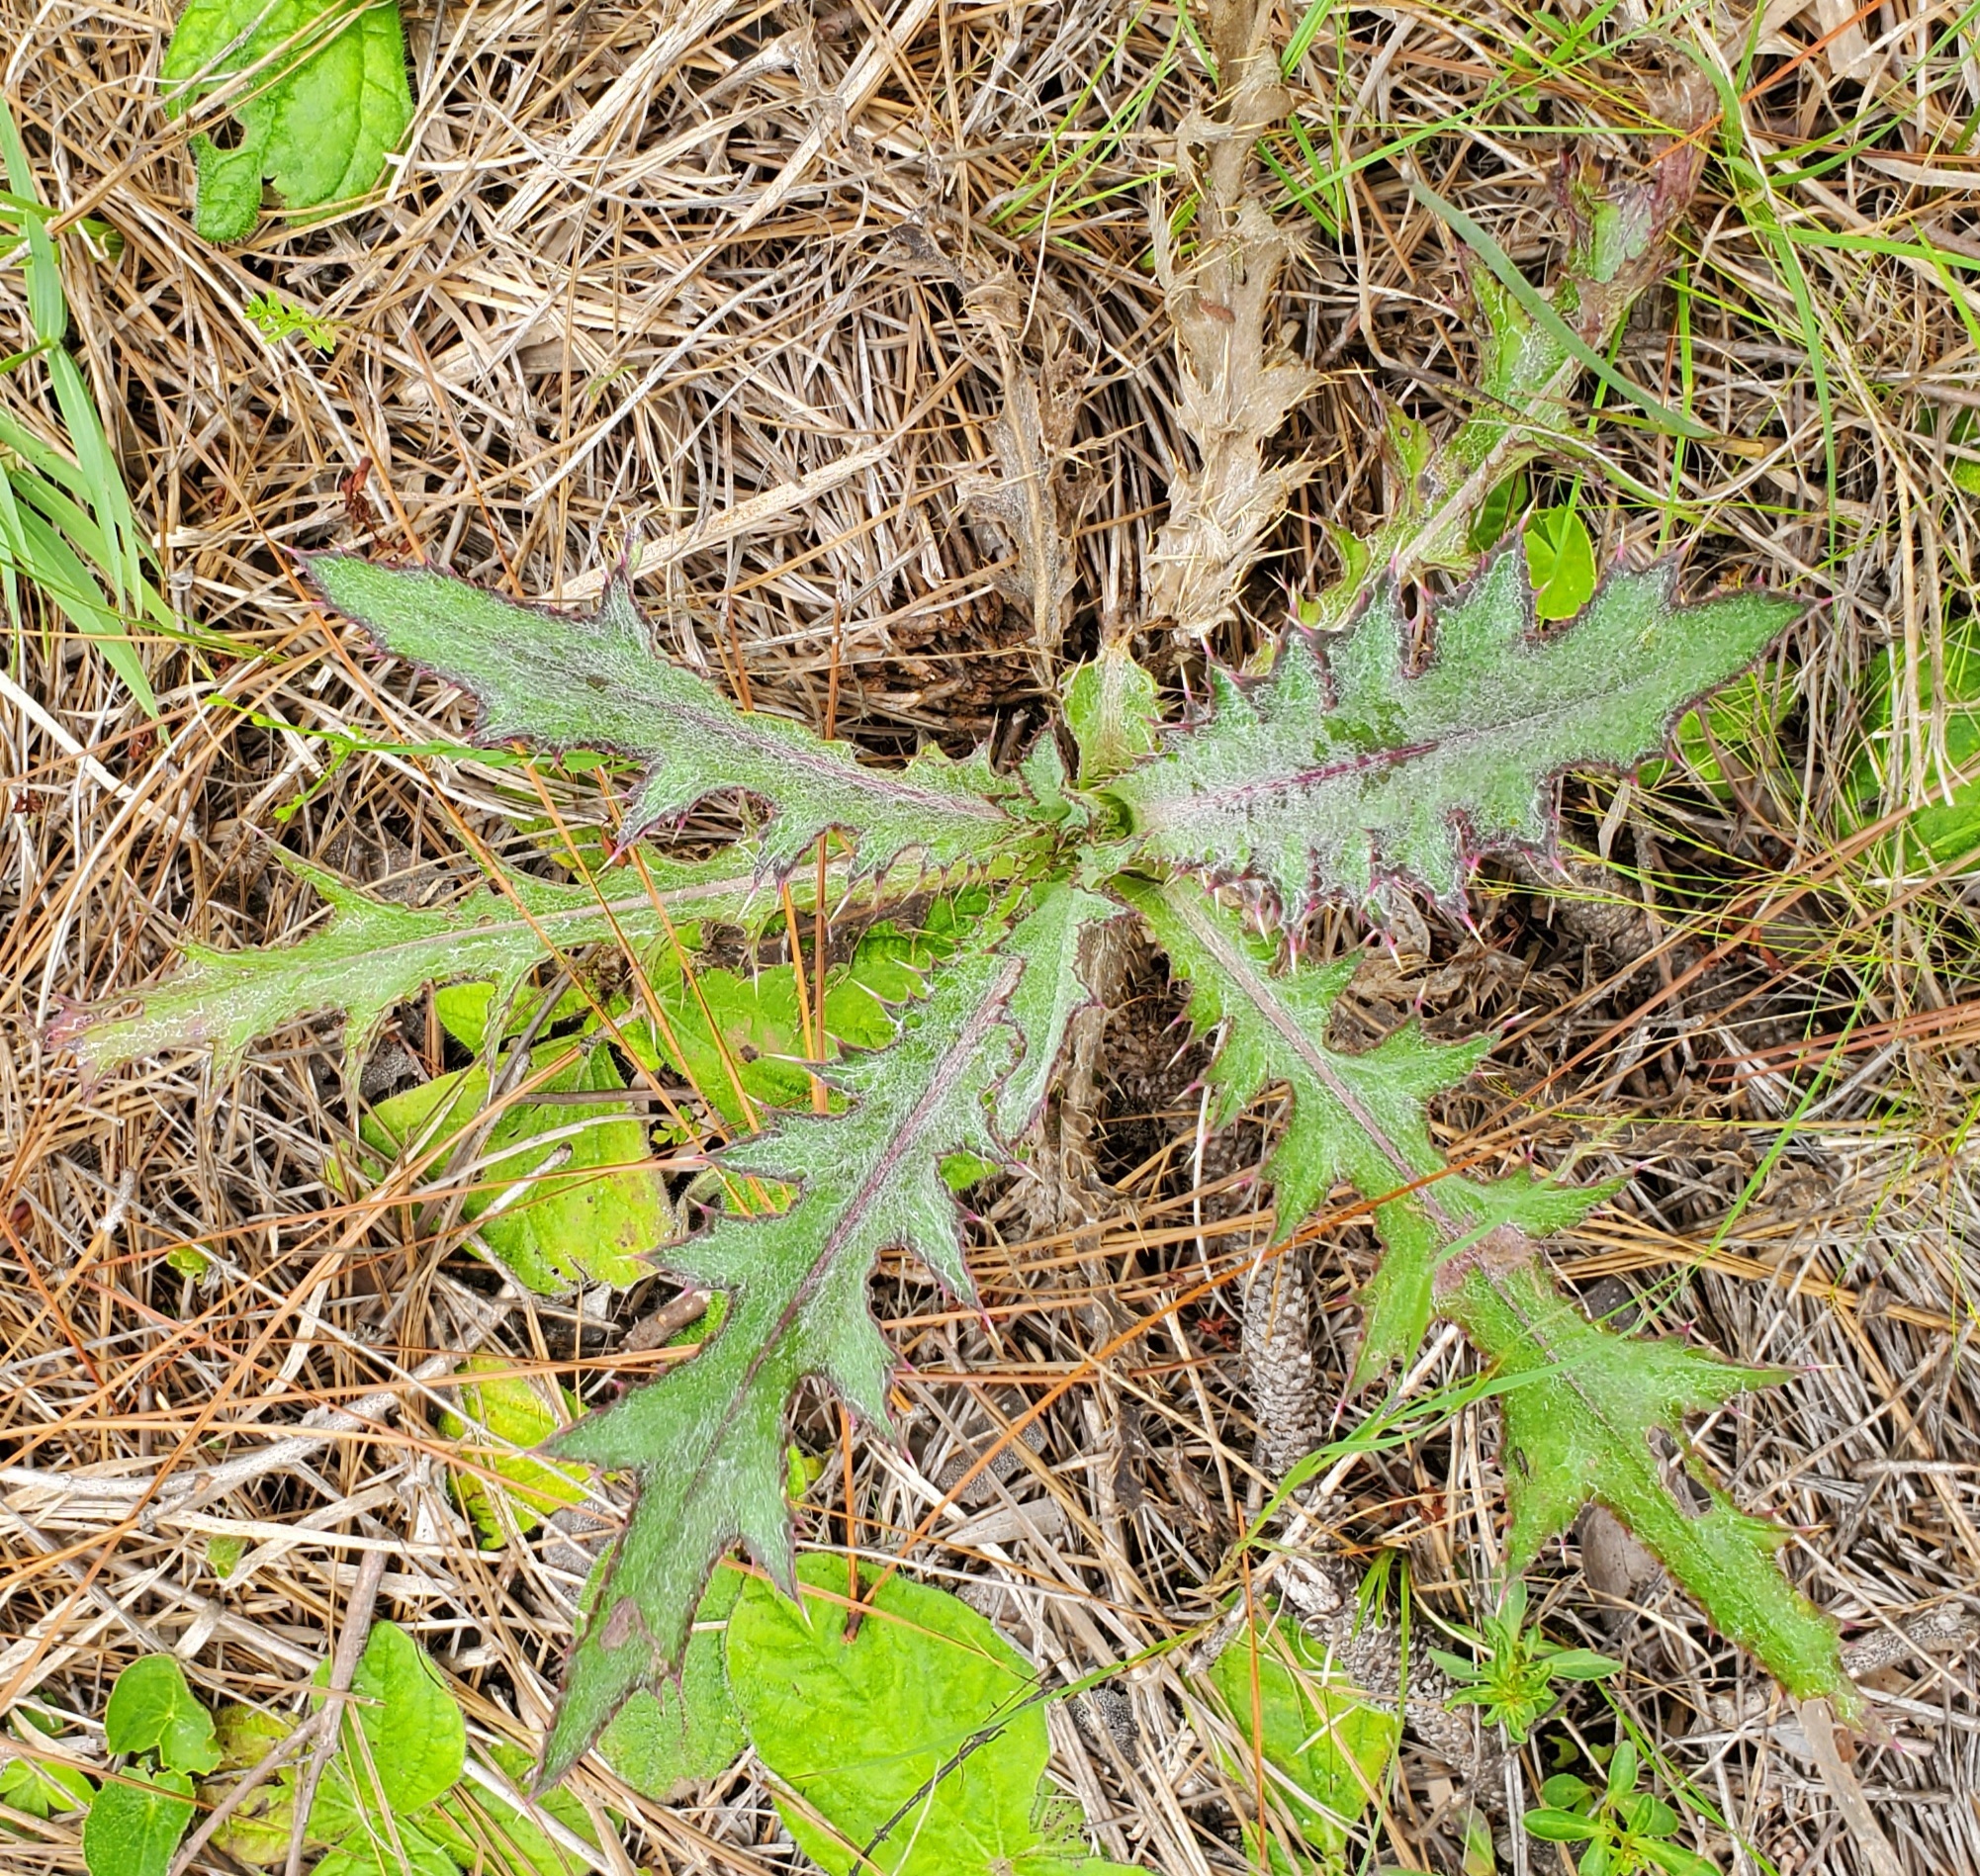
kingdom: Plantae
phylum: Tracheophyta
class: Magnoliopsida
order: Asterales
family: Asteraceae
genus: Cirsium
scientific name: Cirsium horridulum
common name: Bristly thistle
